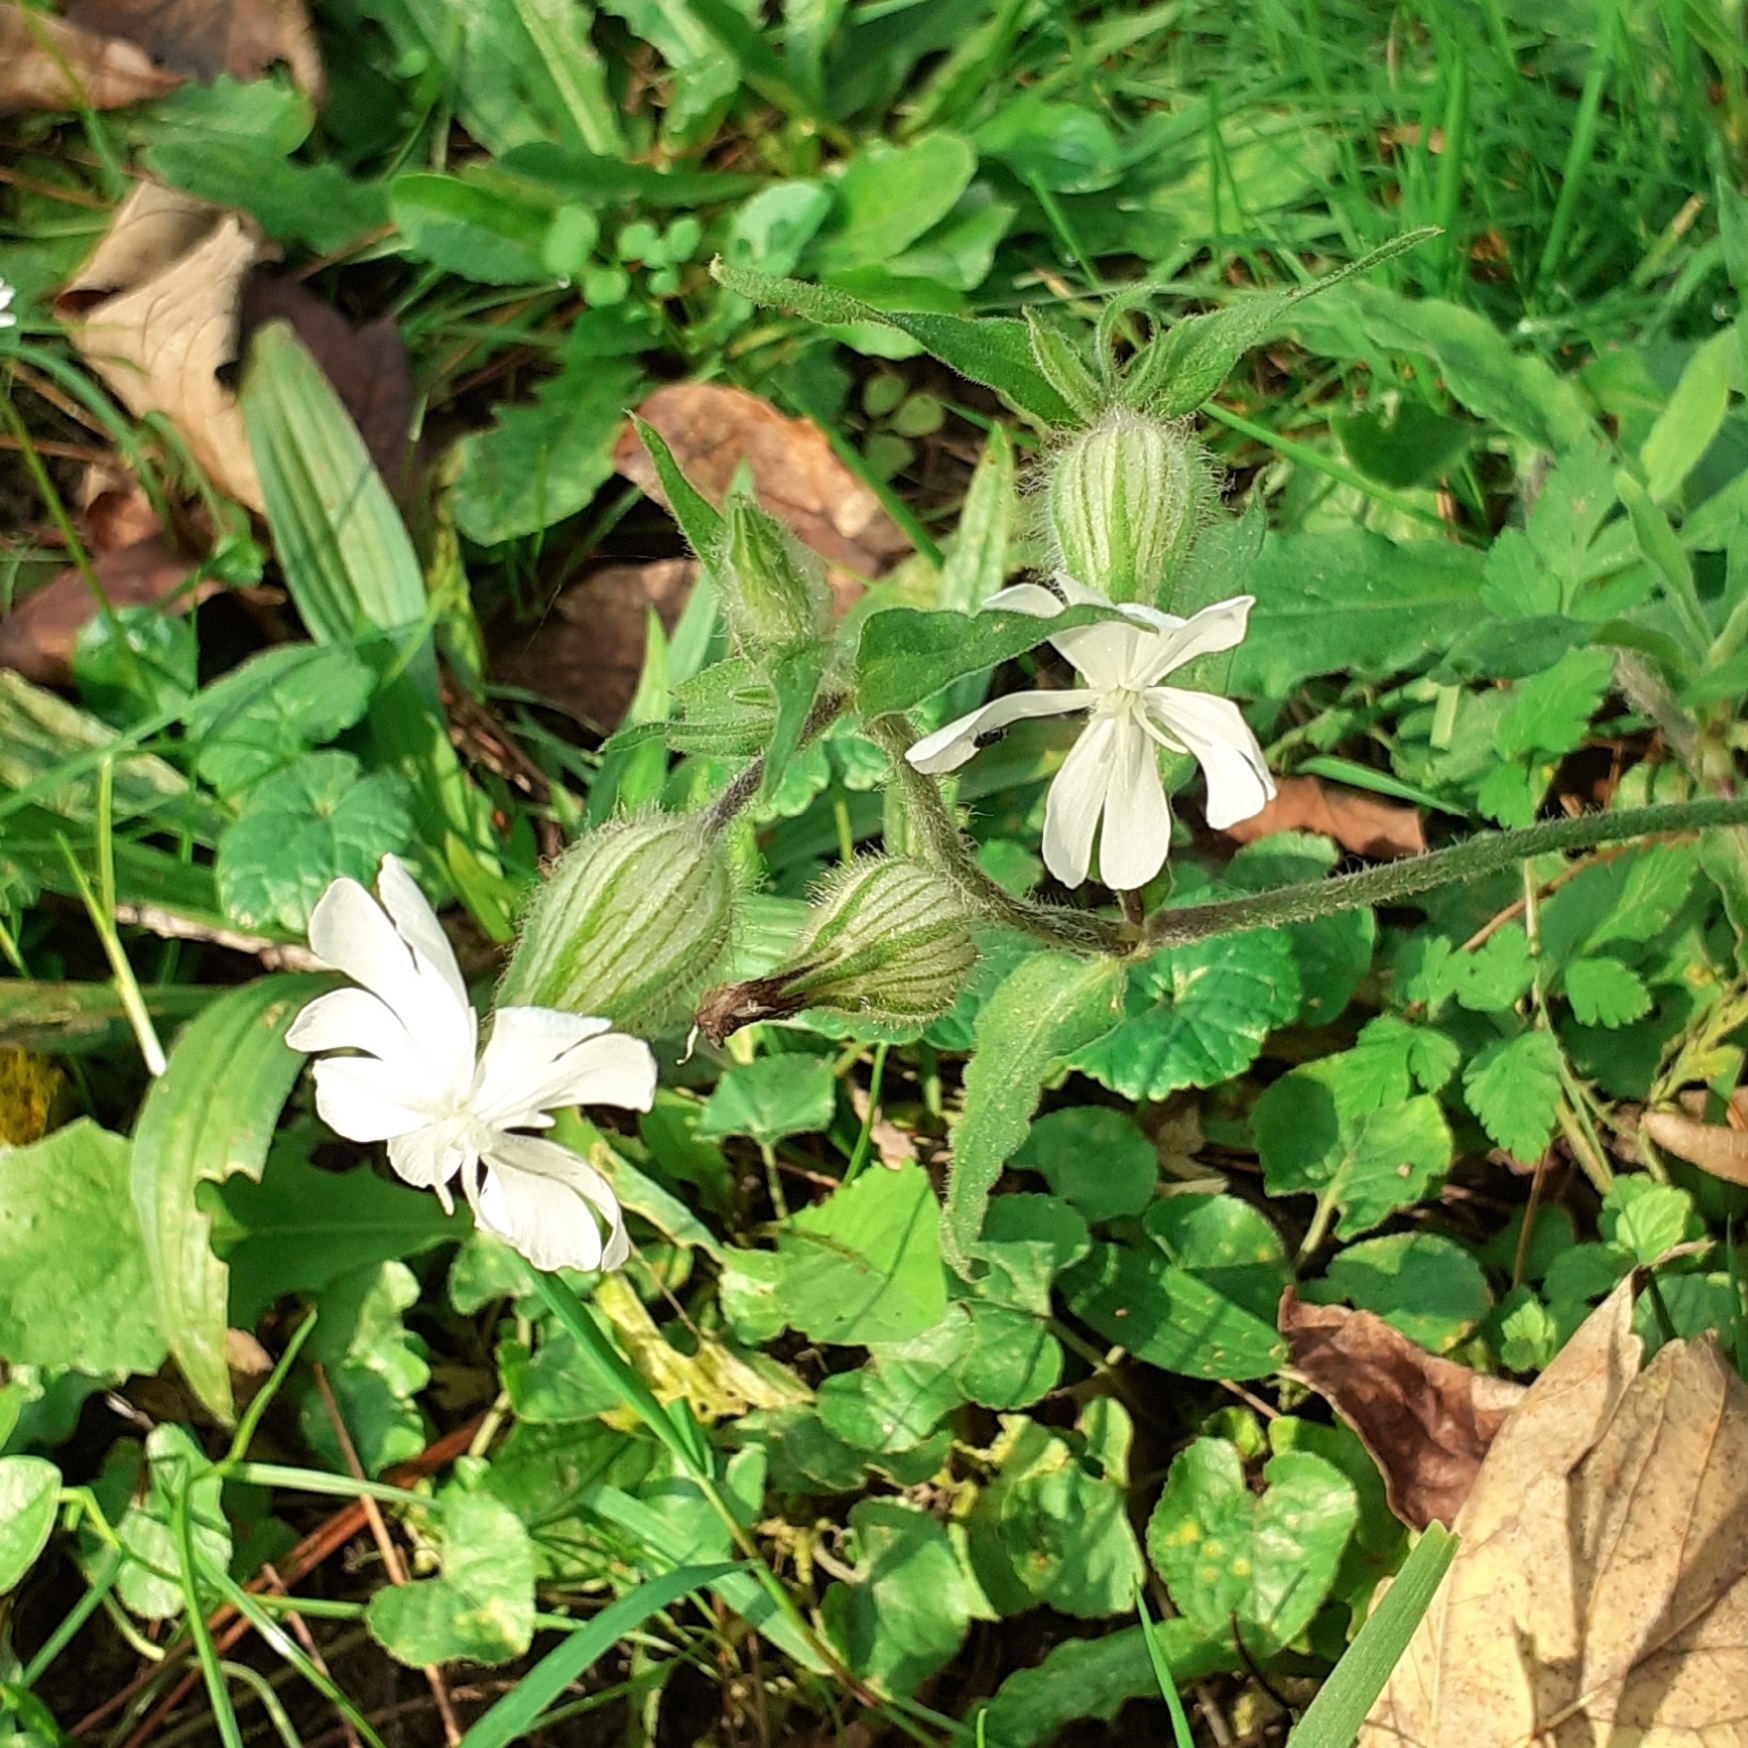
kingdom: Plantae
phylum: Tracheophyta
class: Magnoliopsida
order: Caryophyllales
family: Caryophyllaceae
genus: Silene
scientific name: Silene latifolia
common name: White campion
